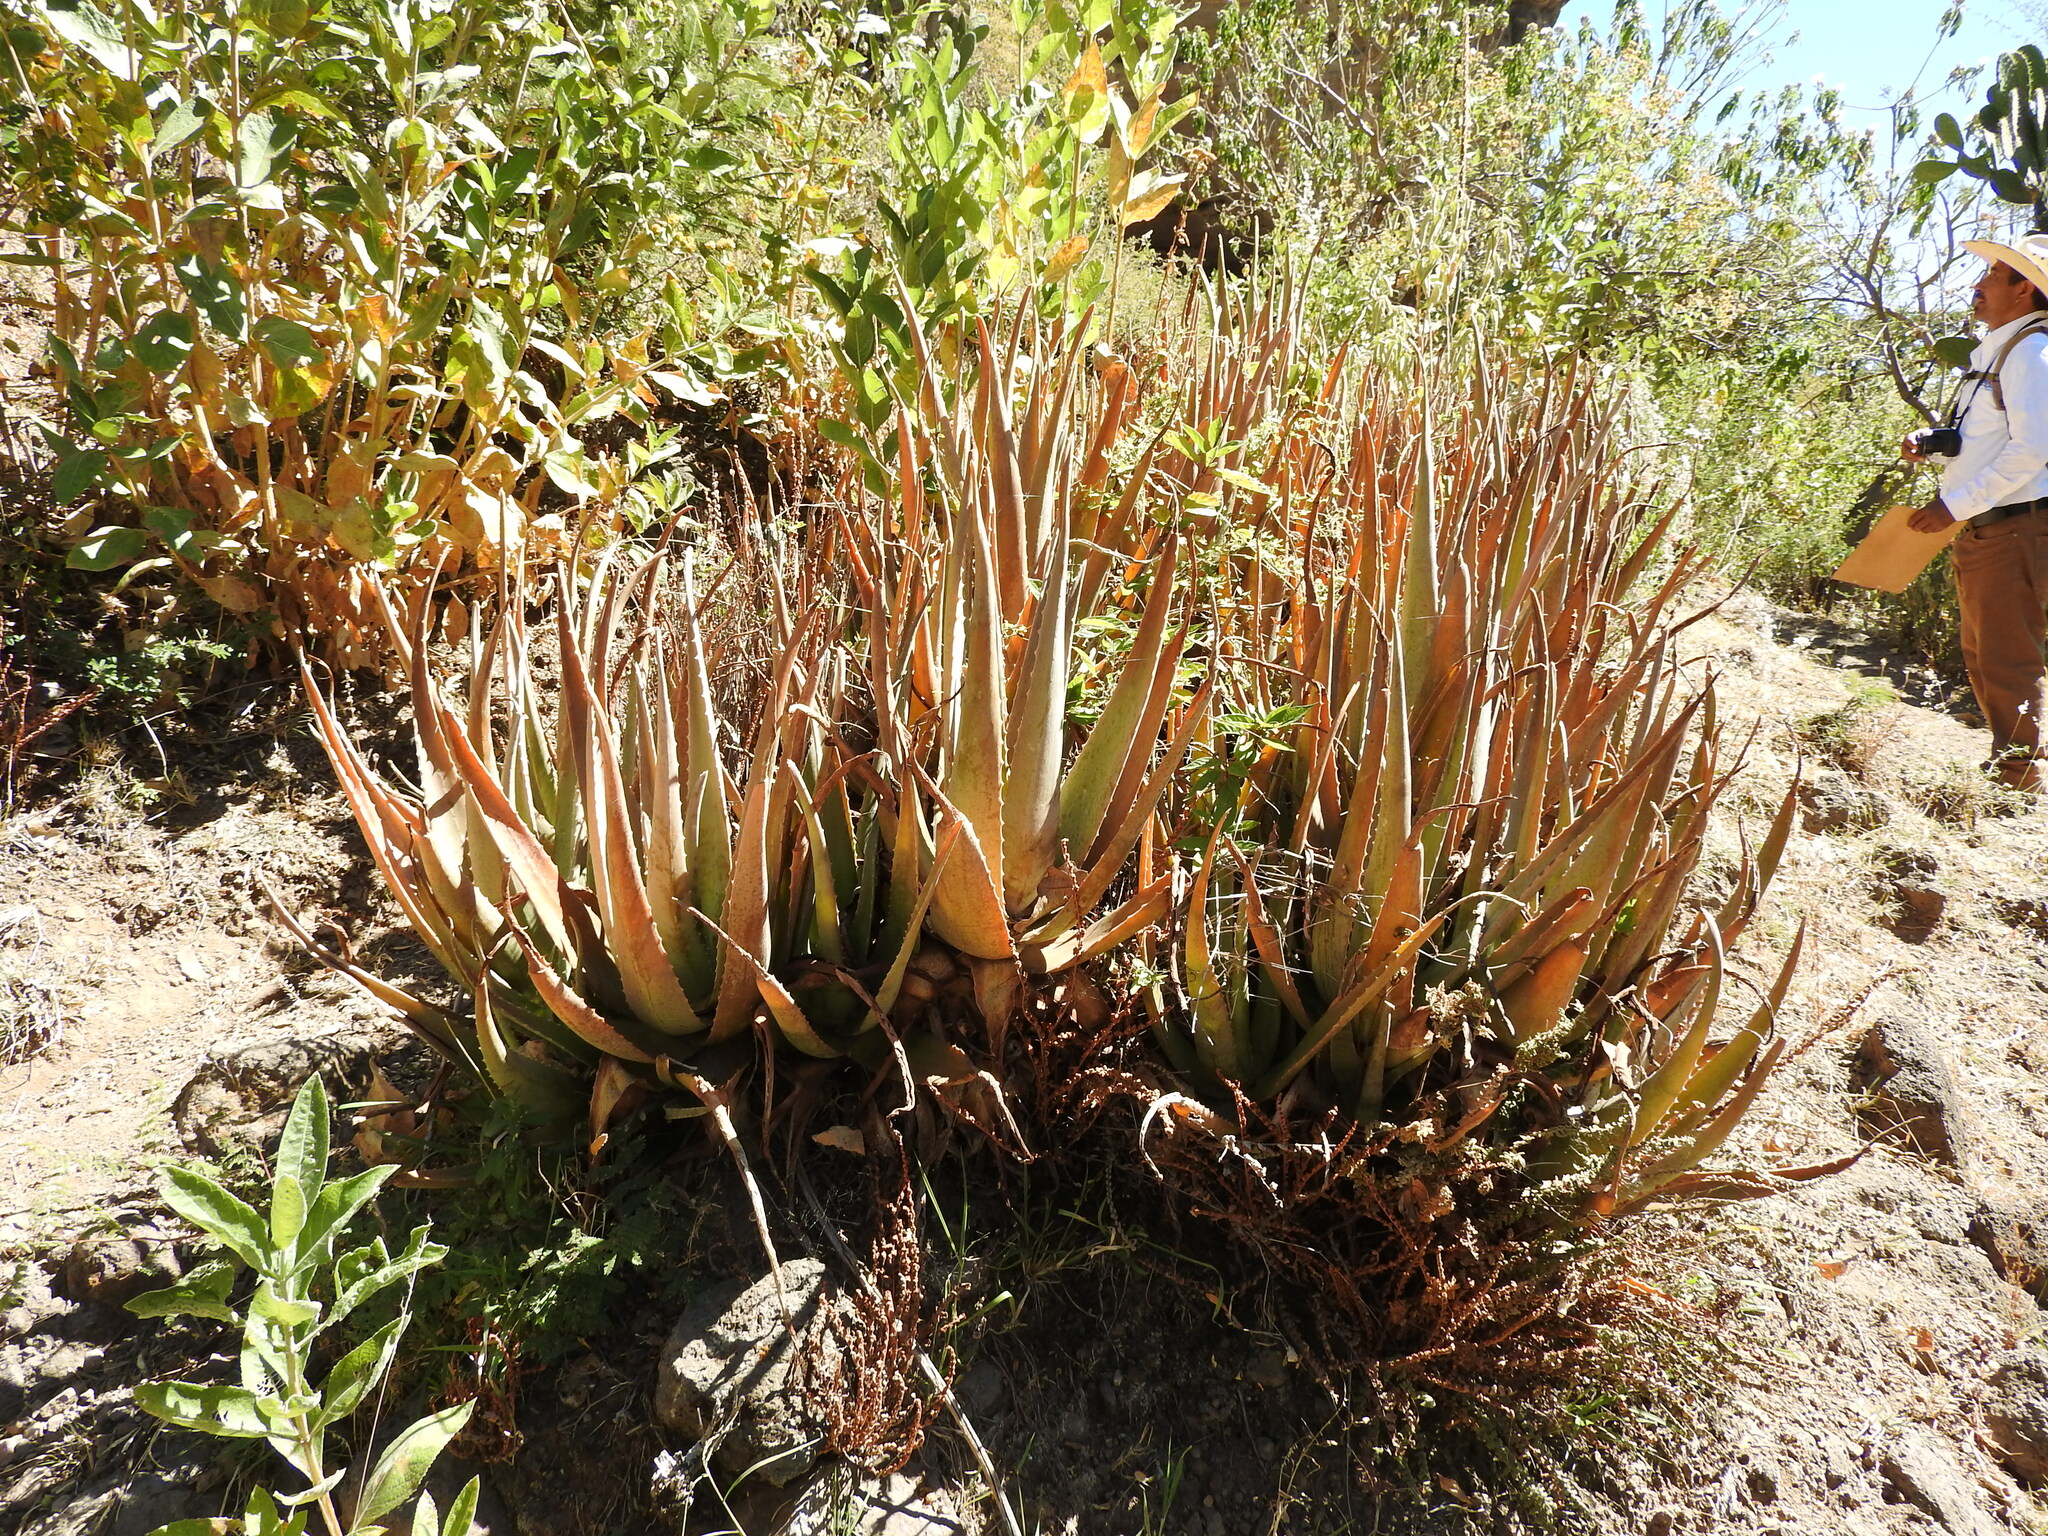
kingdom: Plantae
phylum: Tracheophyta
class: Liliopsida
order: Asparagales
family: Asphodelaceae
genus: Aloe
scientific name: Aloe vera
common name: Barbados aloe
